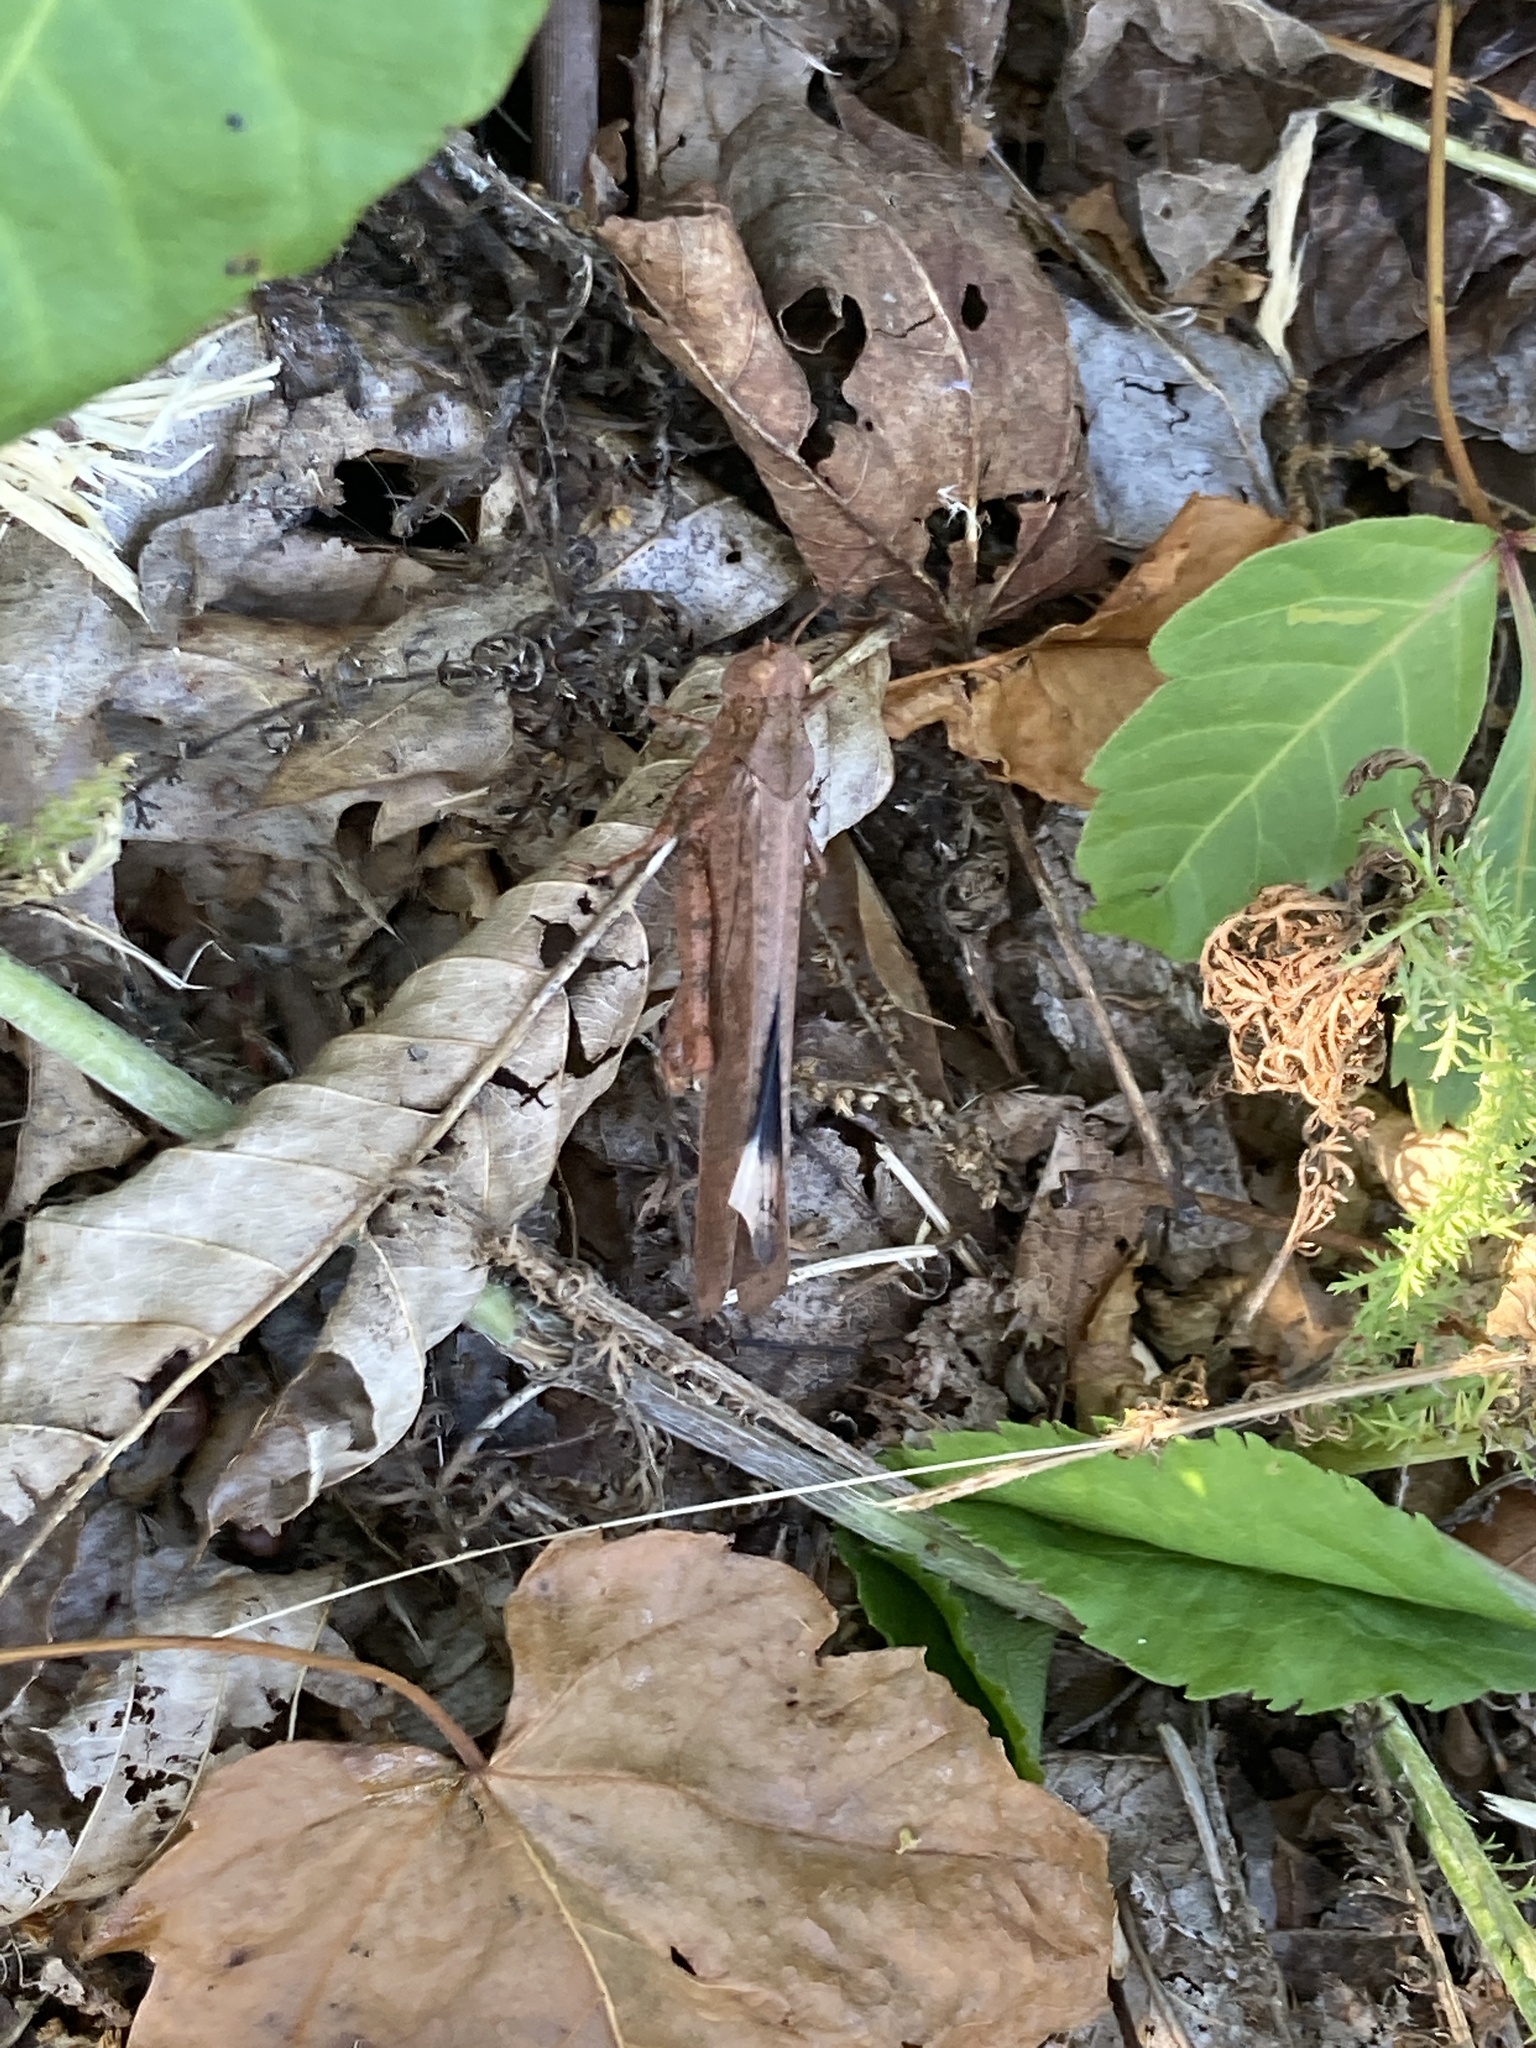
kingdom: Animalia
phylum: Arthropoda
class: Insecta
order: Orthoptera
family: Acrididae
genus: Dissosteira
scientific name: Dissosteira carolina
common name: Carolina grasshopper
